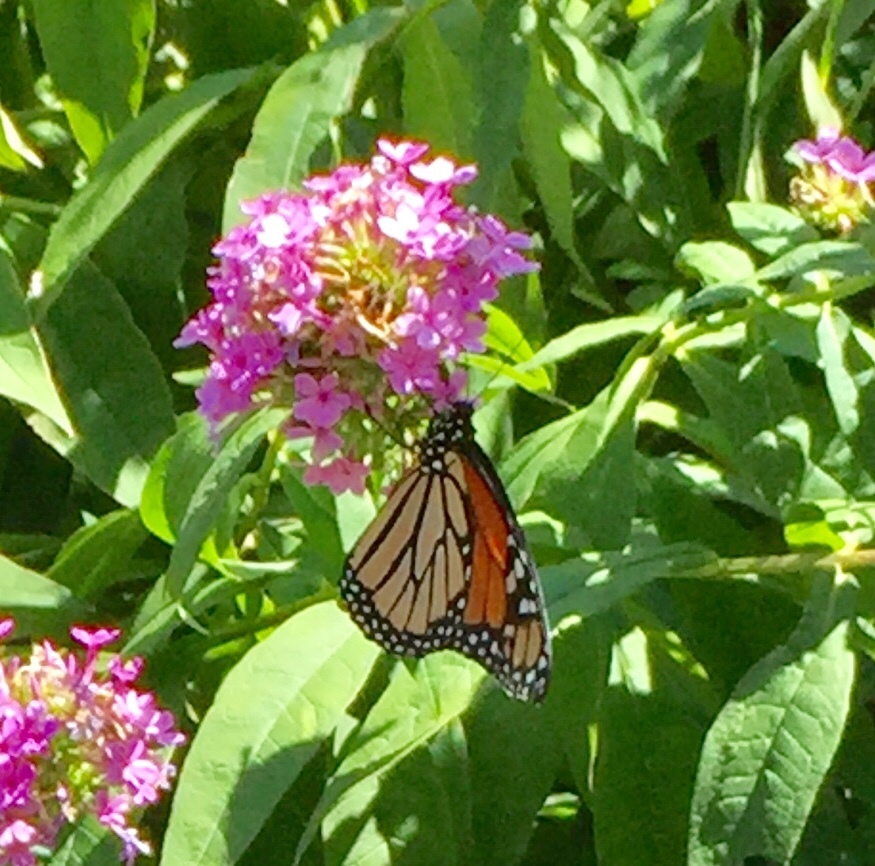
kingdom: Animalia
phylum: Arthropoda
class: Insecta
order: Lepidoptera
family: Nymphalidae
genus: Danaus
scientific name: Danaus plexippus
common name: Monarch
